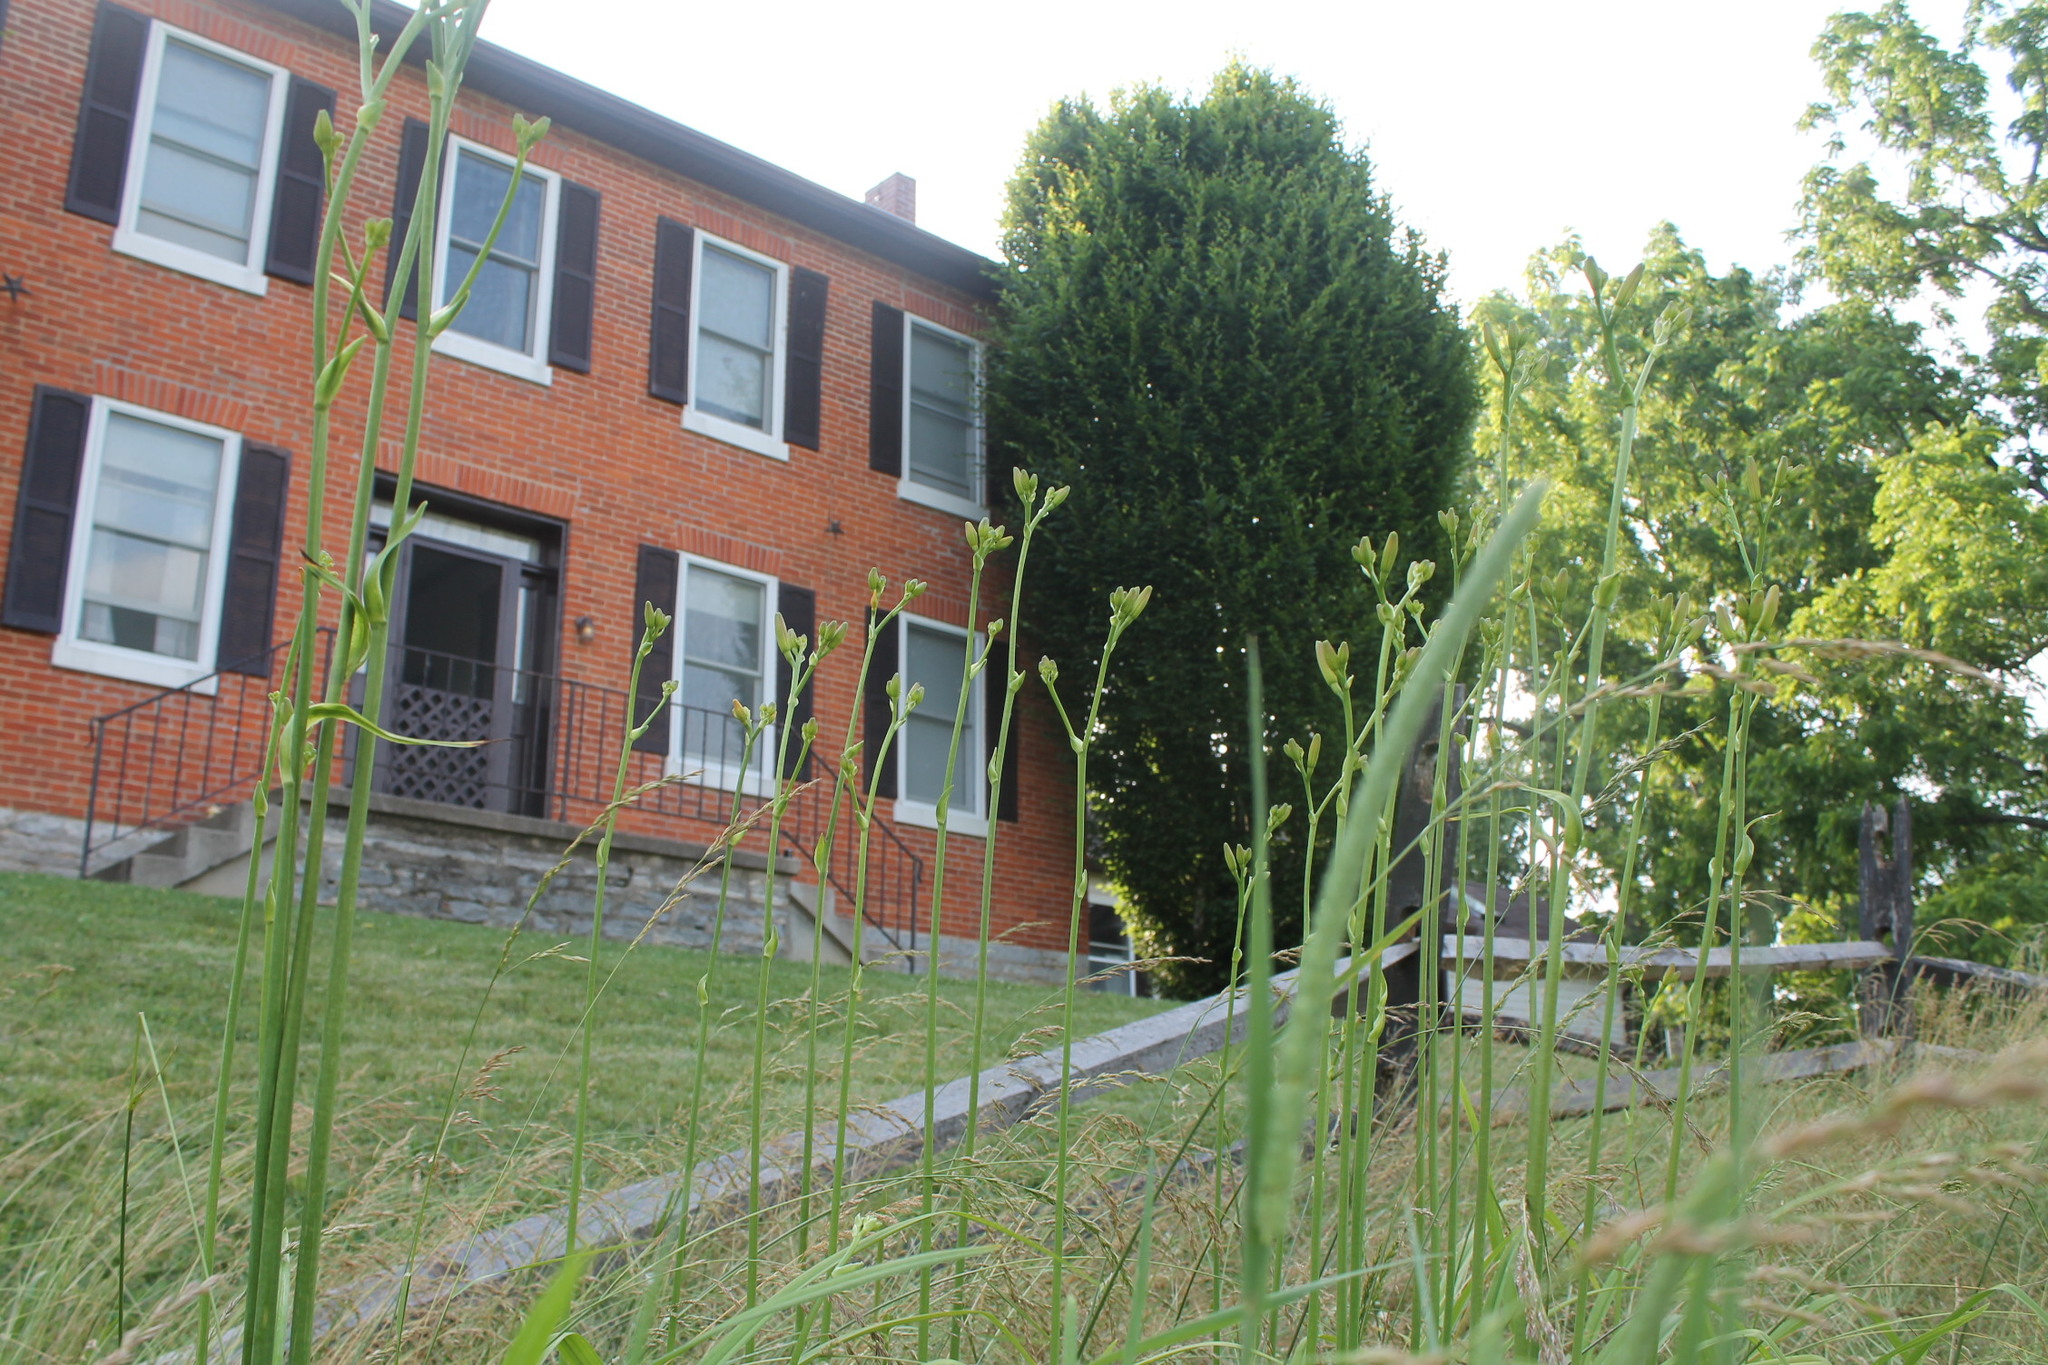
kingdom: Plantae
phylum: Tracheophyta
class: Liliopsida
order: Asparagales
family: Asphodelaceae
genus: Hemerocallis
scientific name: Hemerocallis fulva
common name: Orange day-lily
